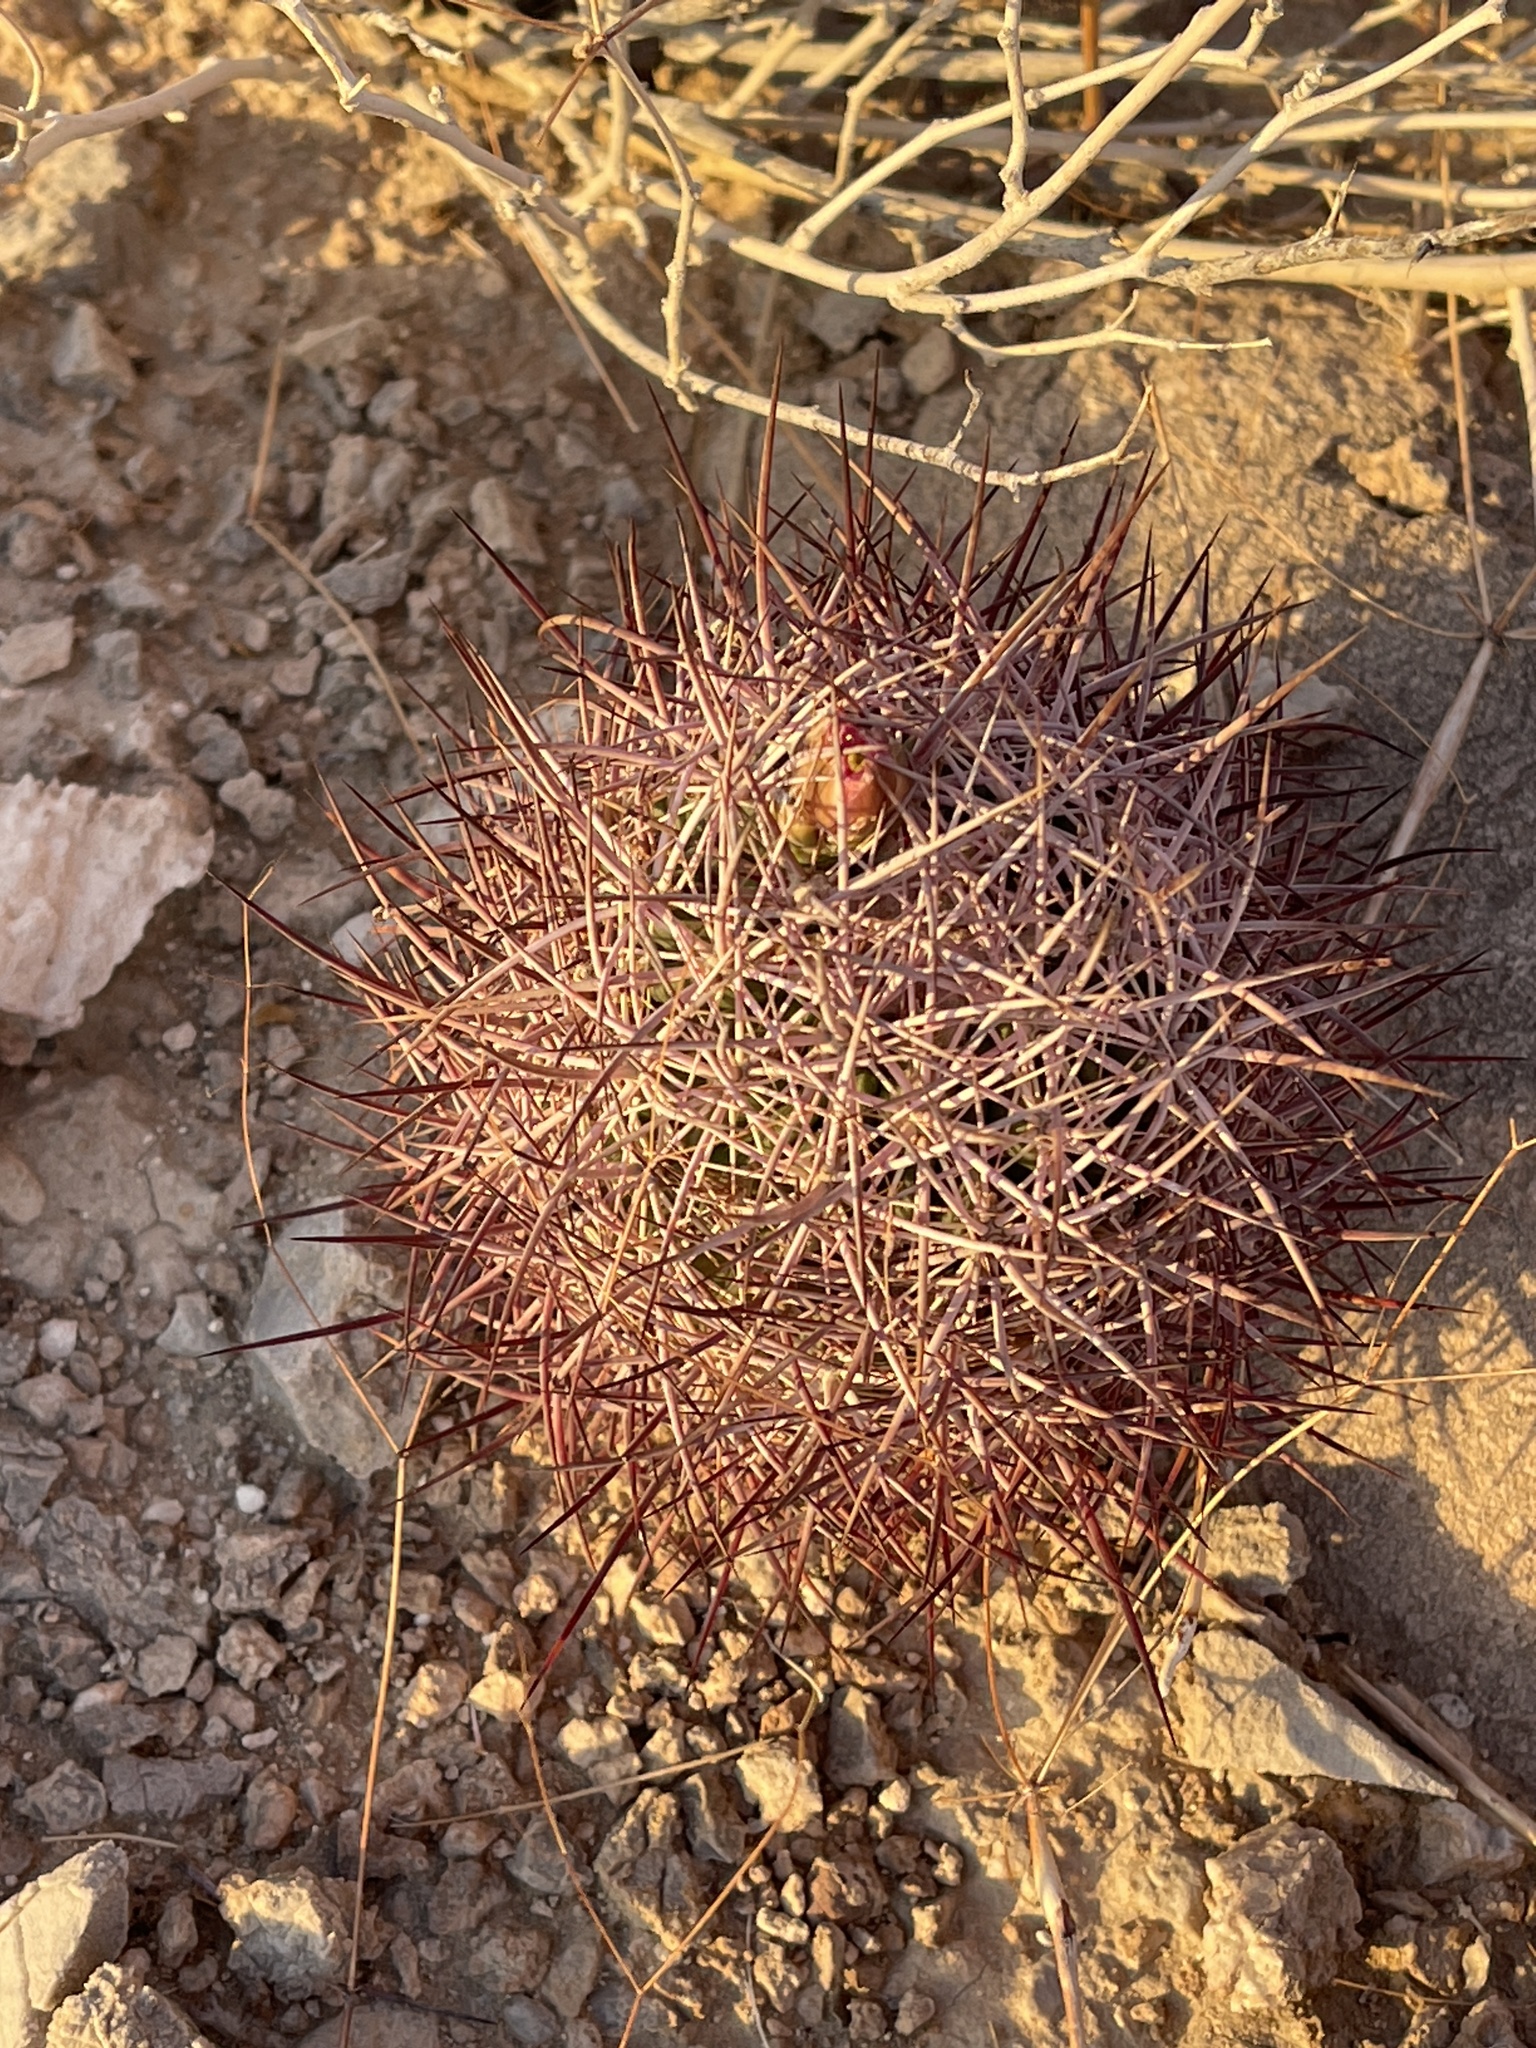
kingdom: Plantae
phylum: Tracheophyta
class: Magnoliopsida
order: Caryophyllales
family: Cactaceae
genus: Sclerocactus
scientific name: Sclerocactus johnsonii
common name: Eight-spine fishhook cactus
